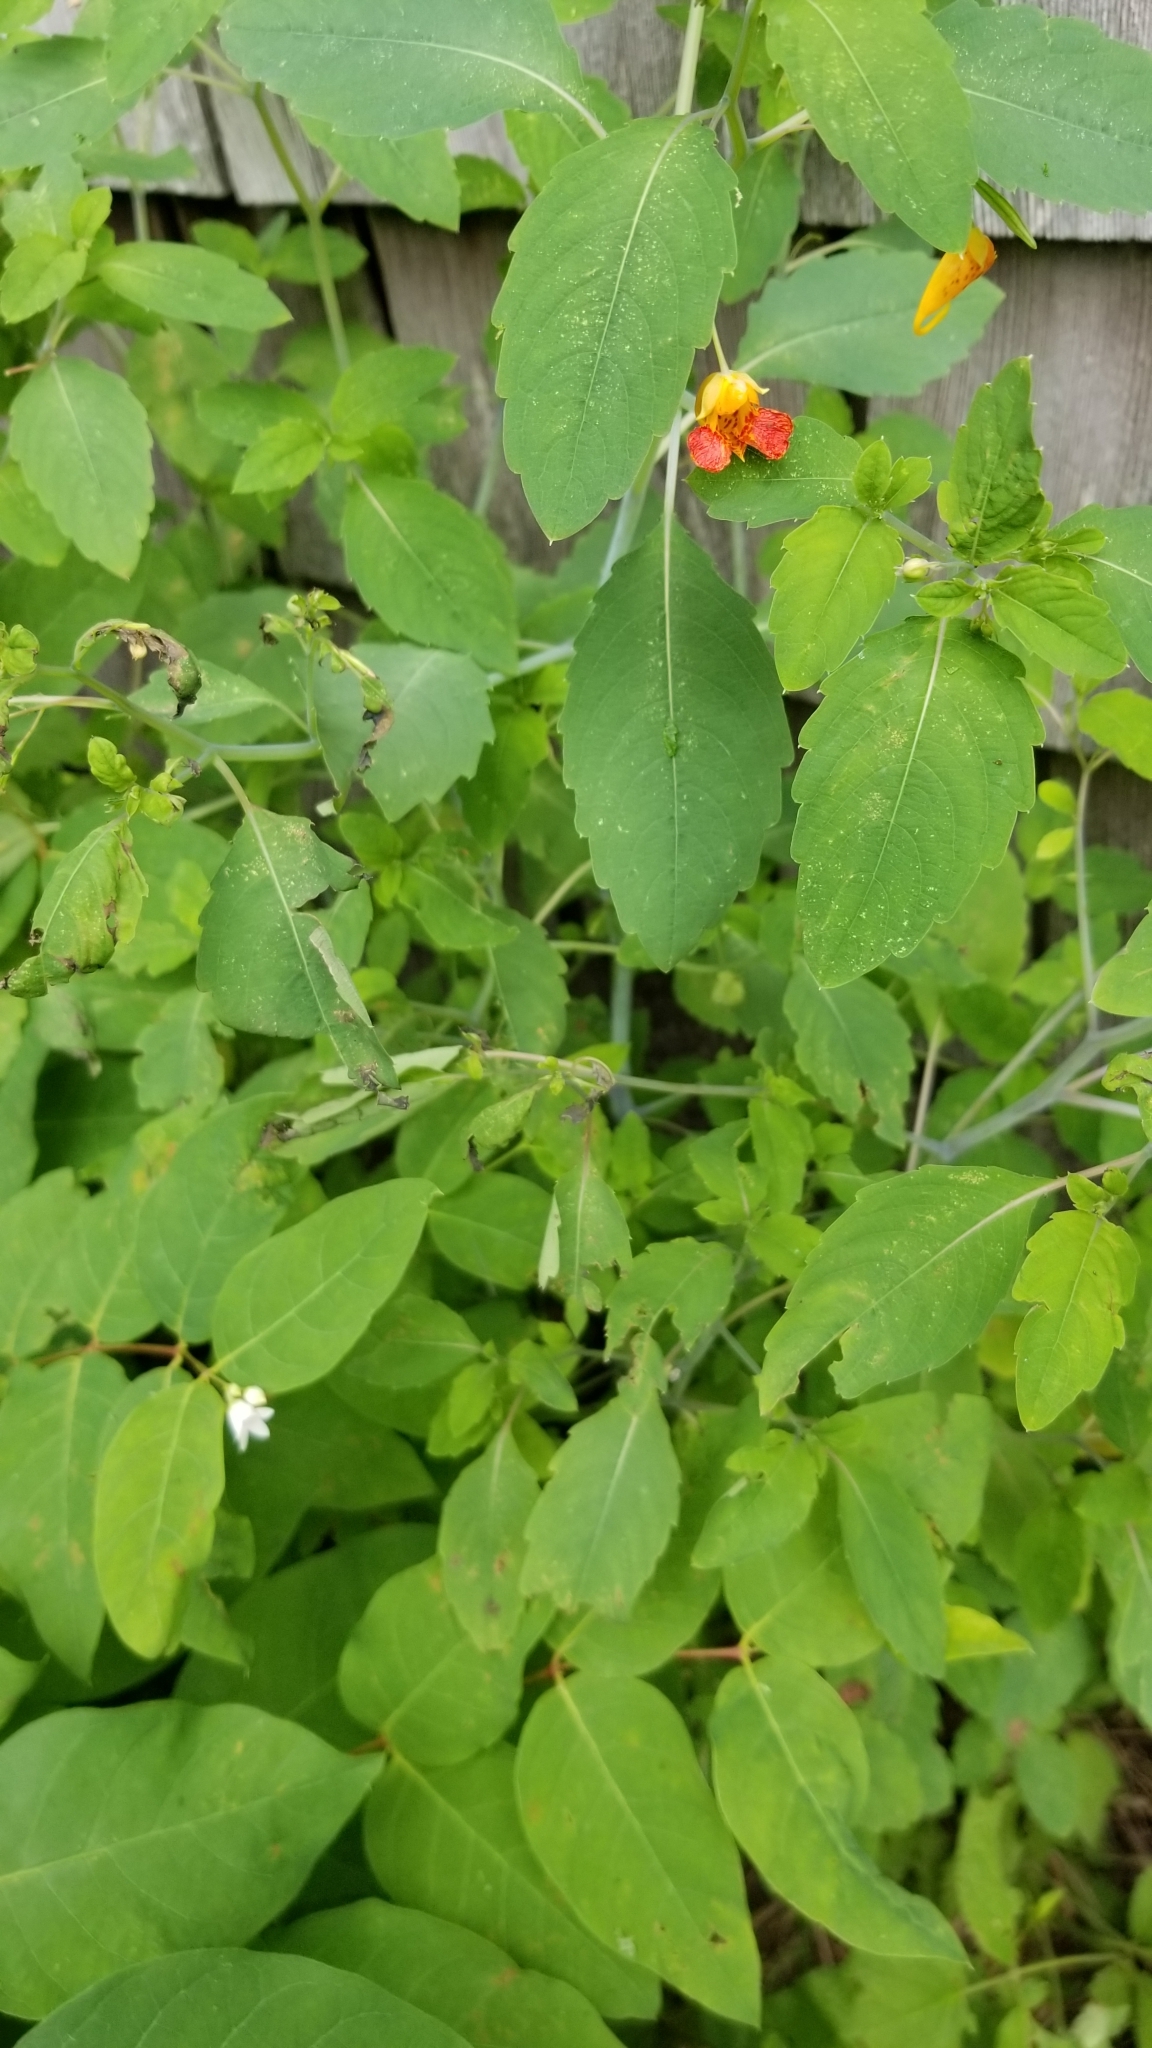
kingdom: Plantae
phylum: Tracheophyta
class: Magnoliopsida
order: Ericales
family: Balsaminaceae
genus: Impatiens
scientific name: Impatiens capensis
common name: Orange balsam
